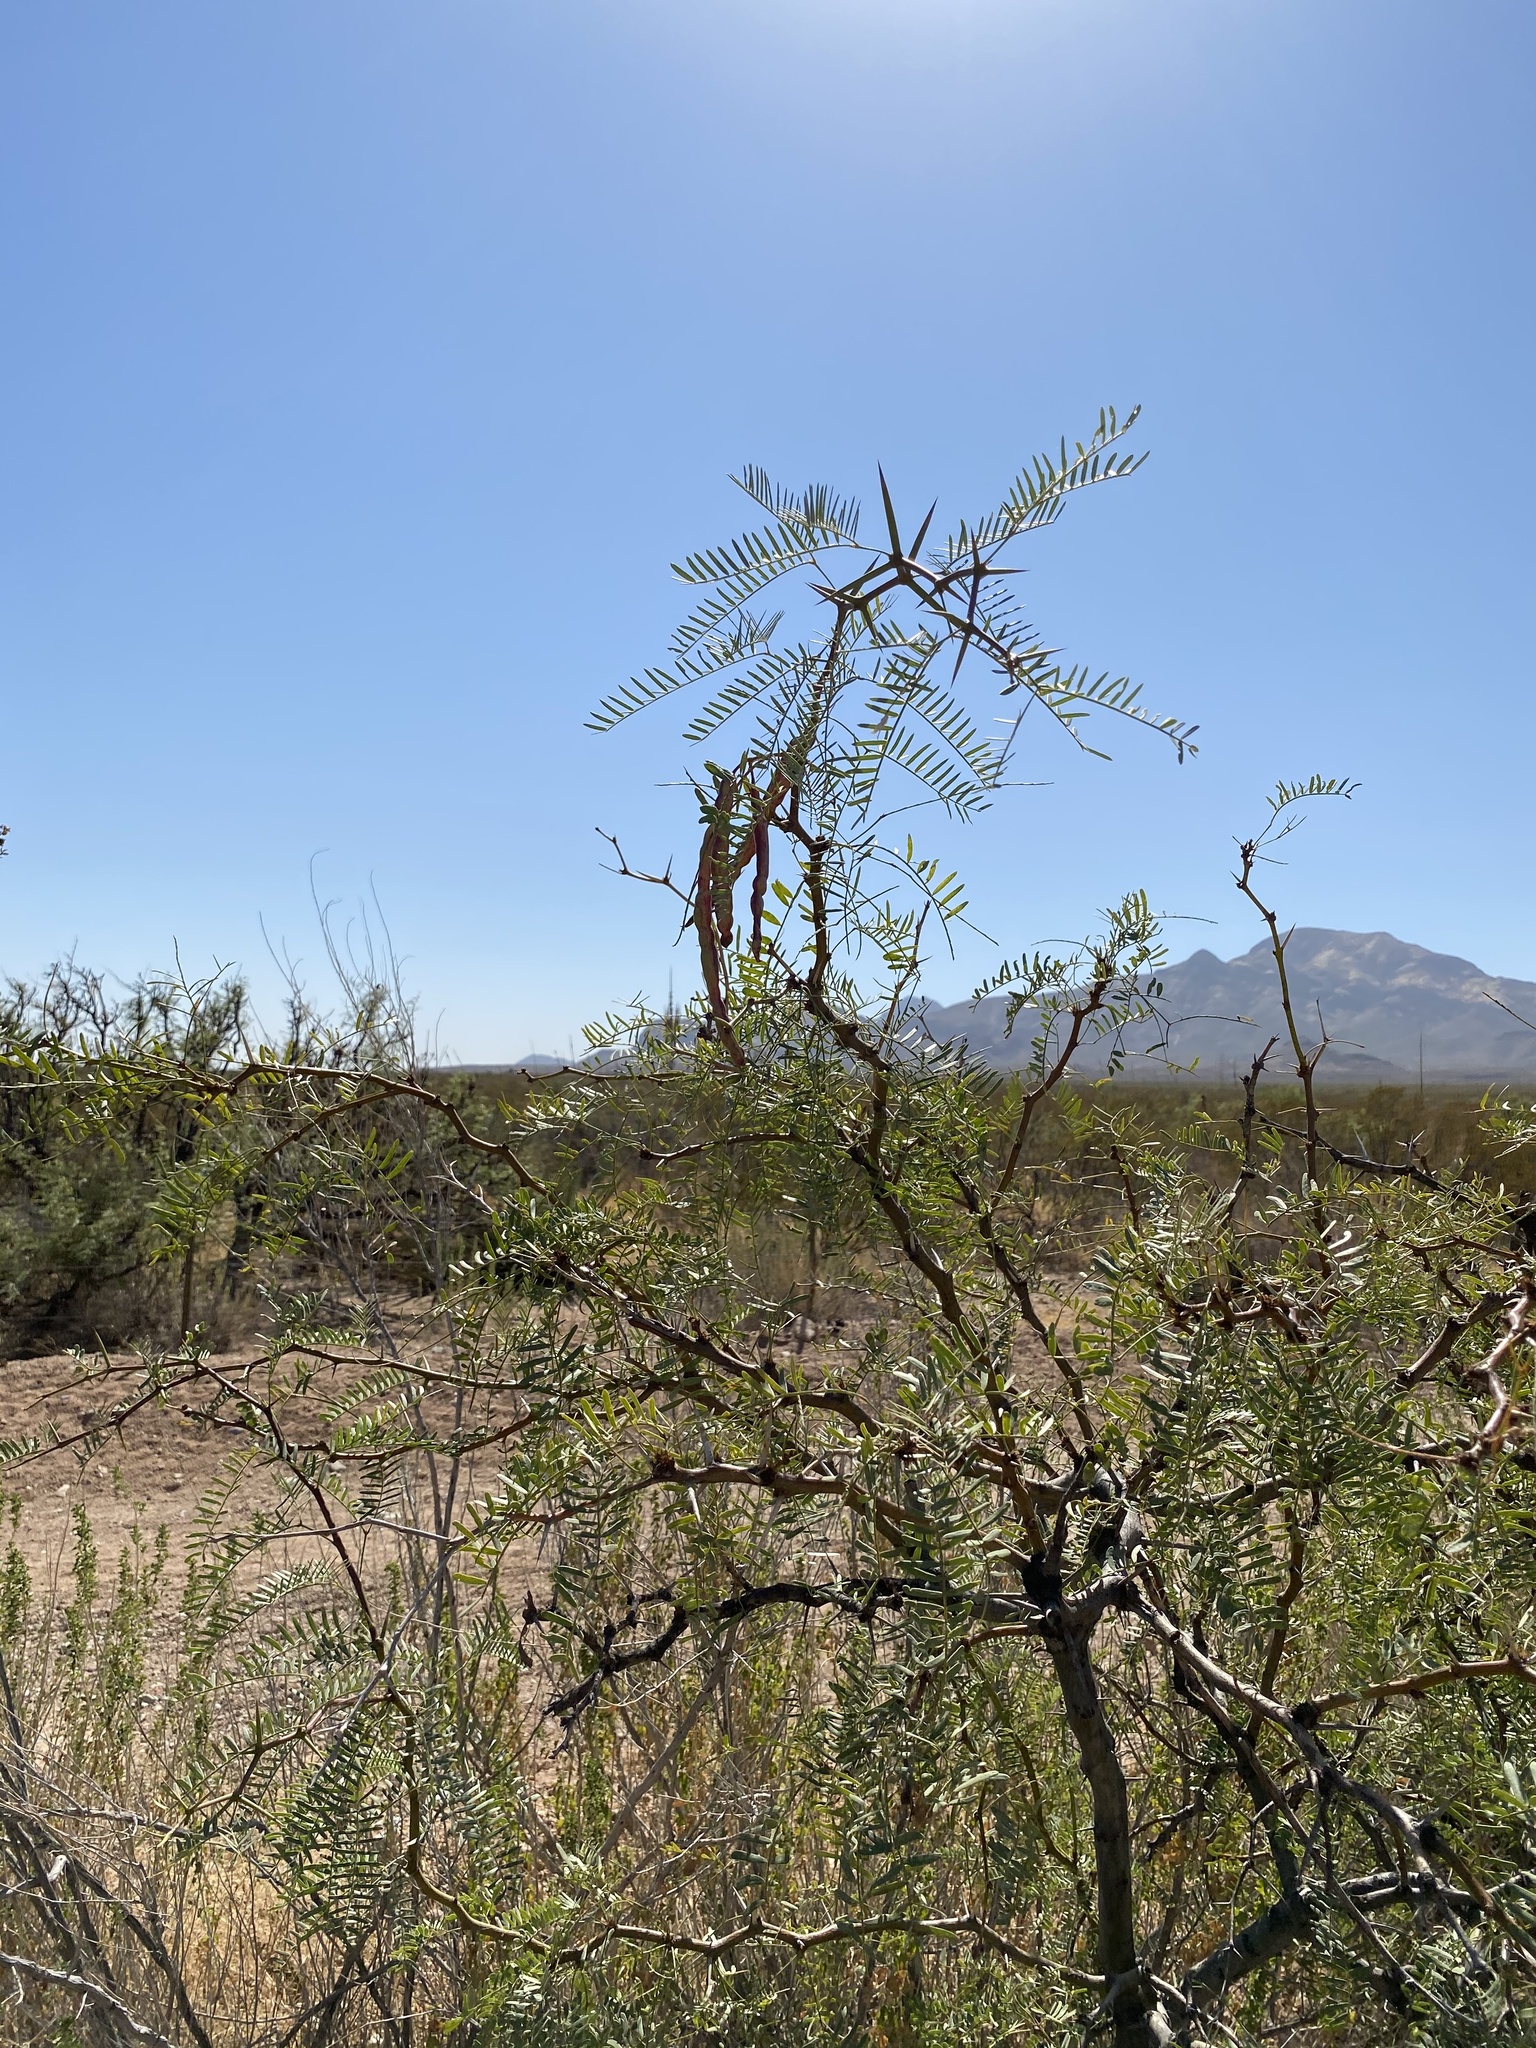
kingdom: Plantae
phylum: Tracheophyta
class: Magnoliopsida
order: Fabales
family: Fabaceae
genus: Prosopis
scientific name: Prosopis glandulosa
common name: Honey mesquite
